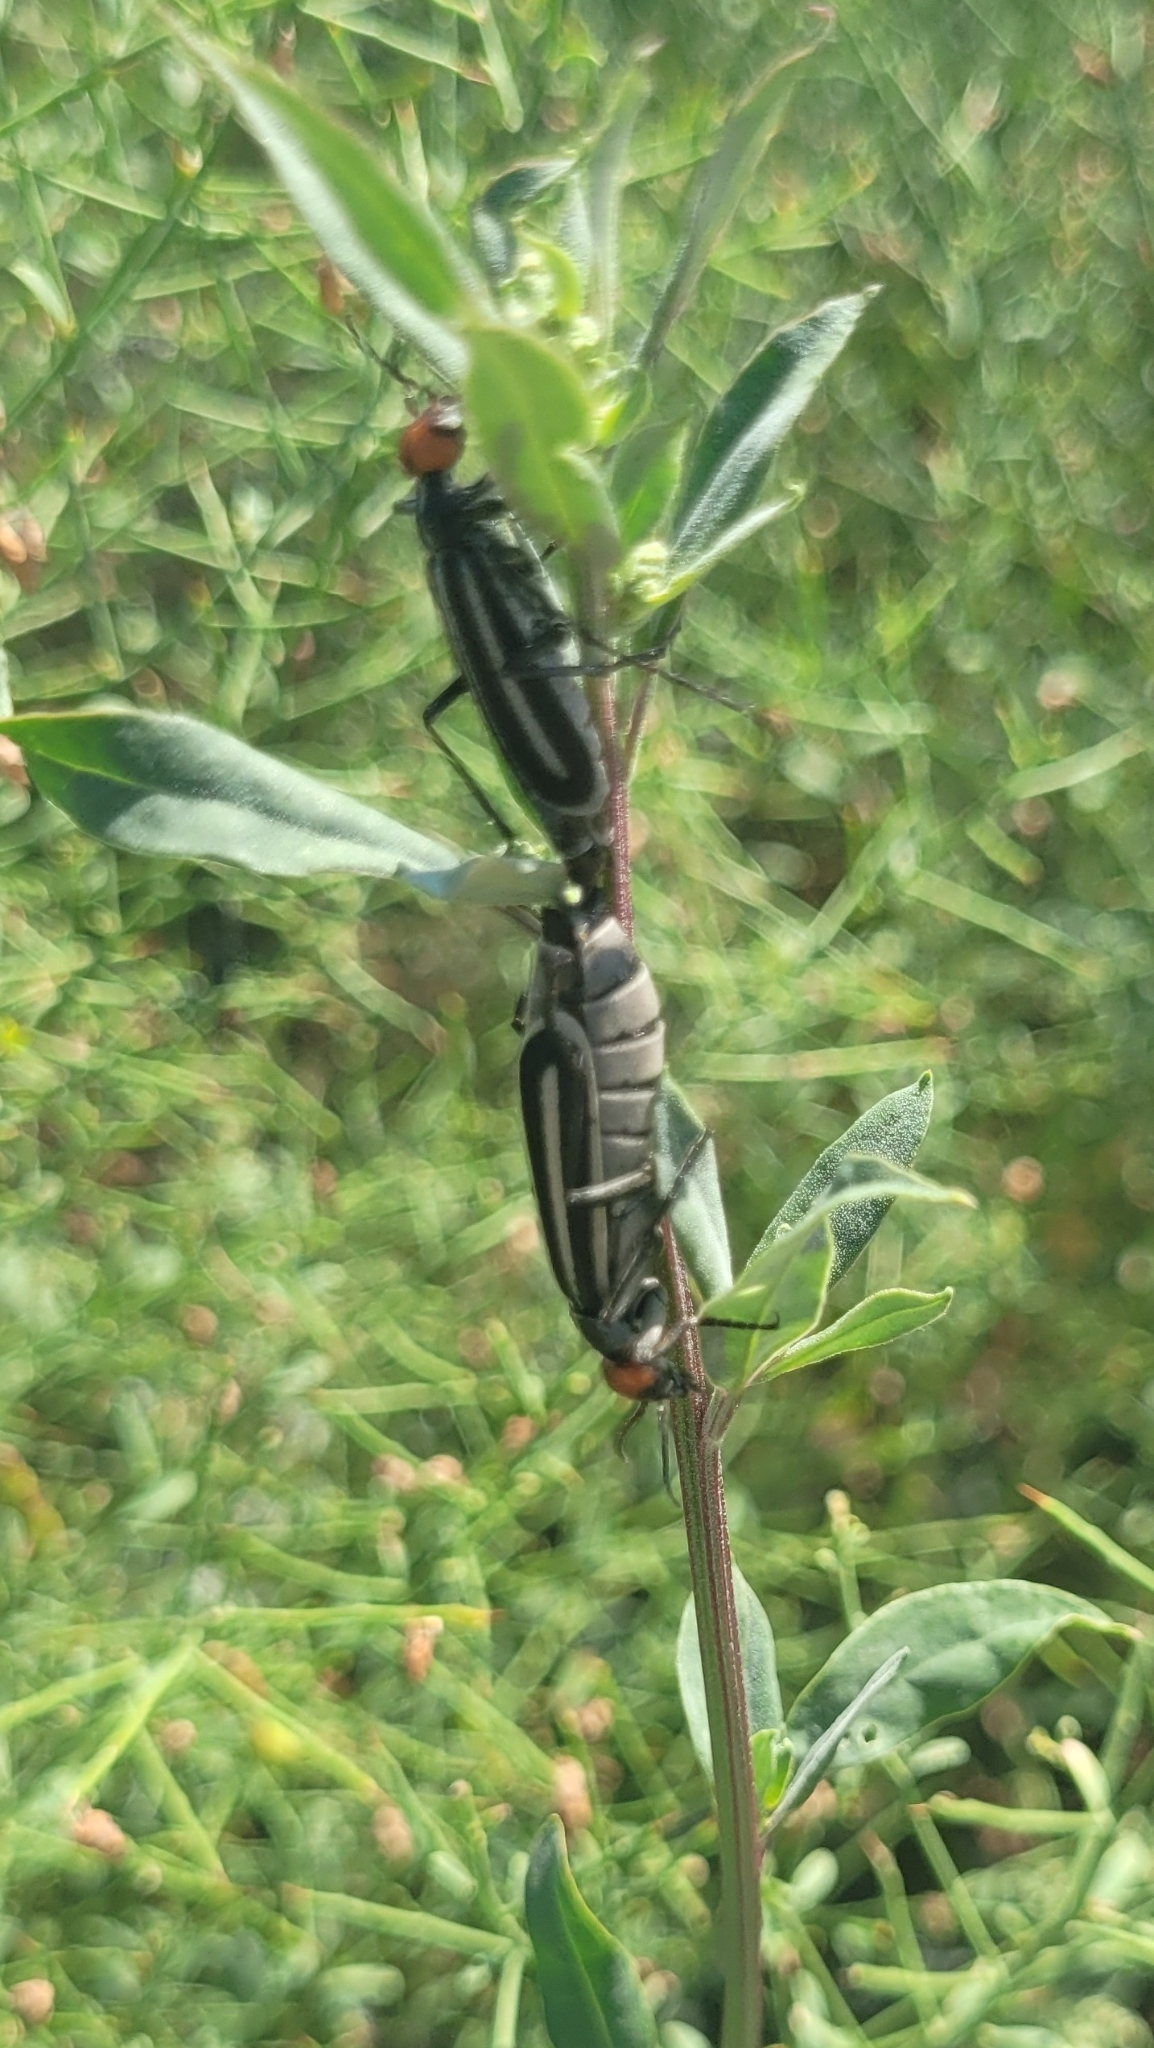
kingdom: Animalia
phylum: Arthropoda
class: Insecta
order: Coleoptera
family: Meloidae
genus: Epicauta
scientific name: Epicauta erythrocephala
